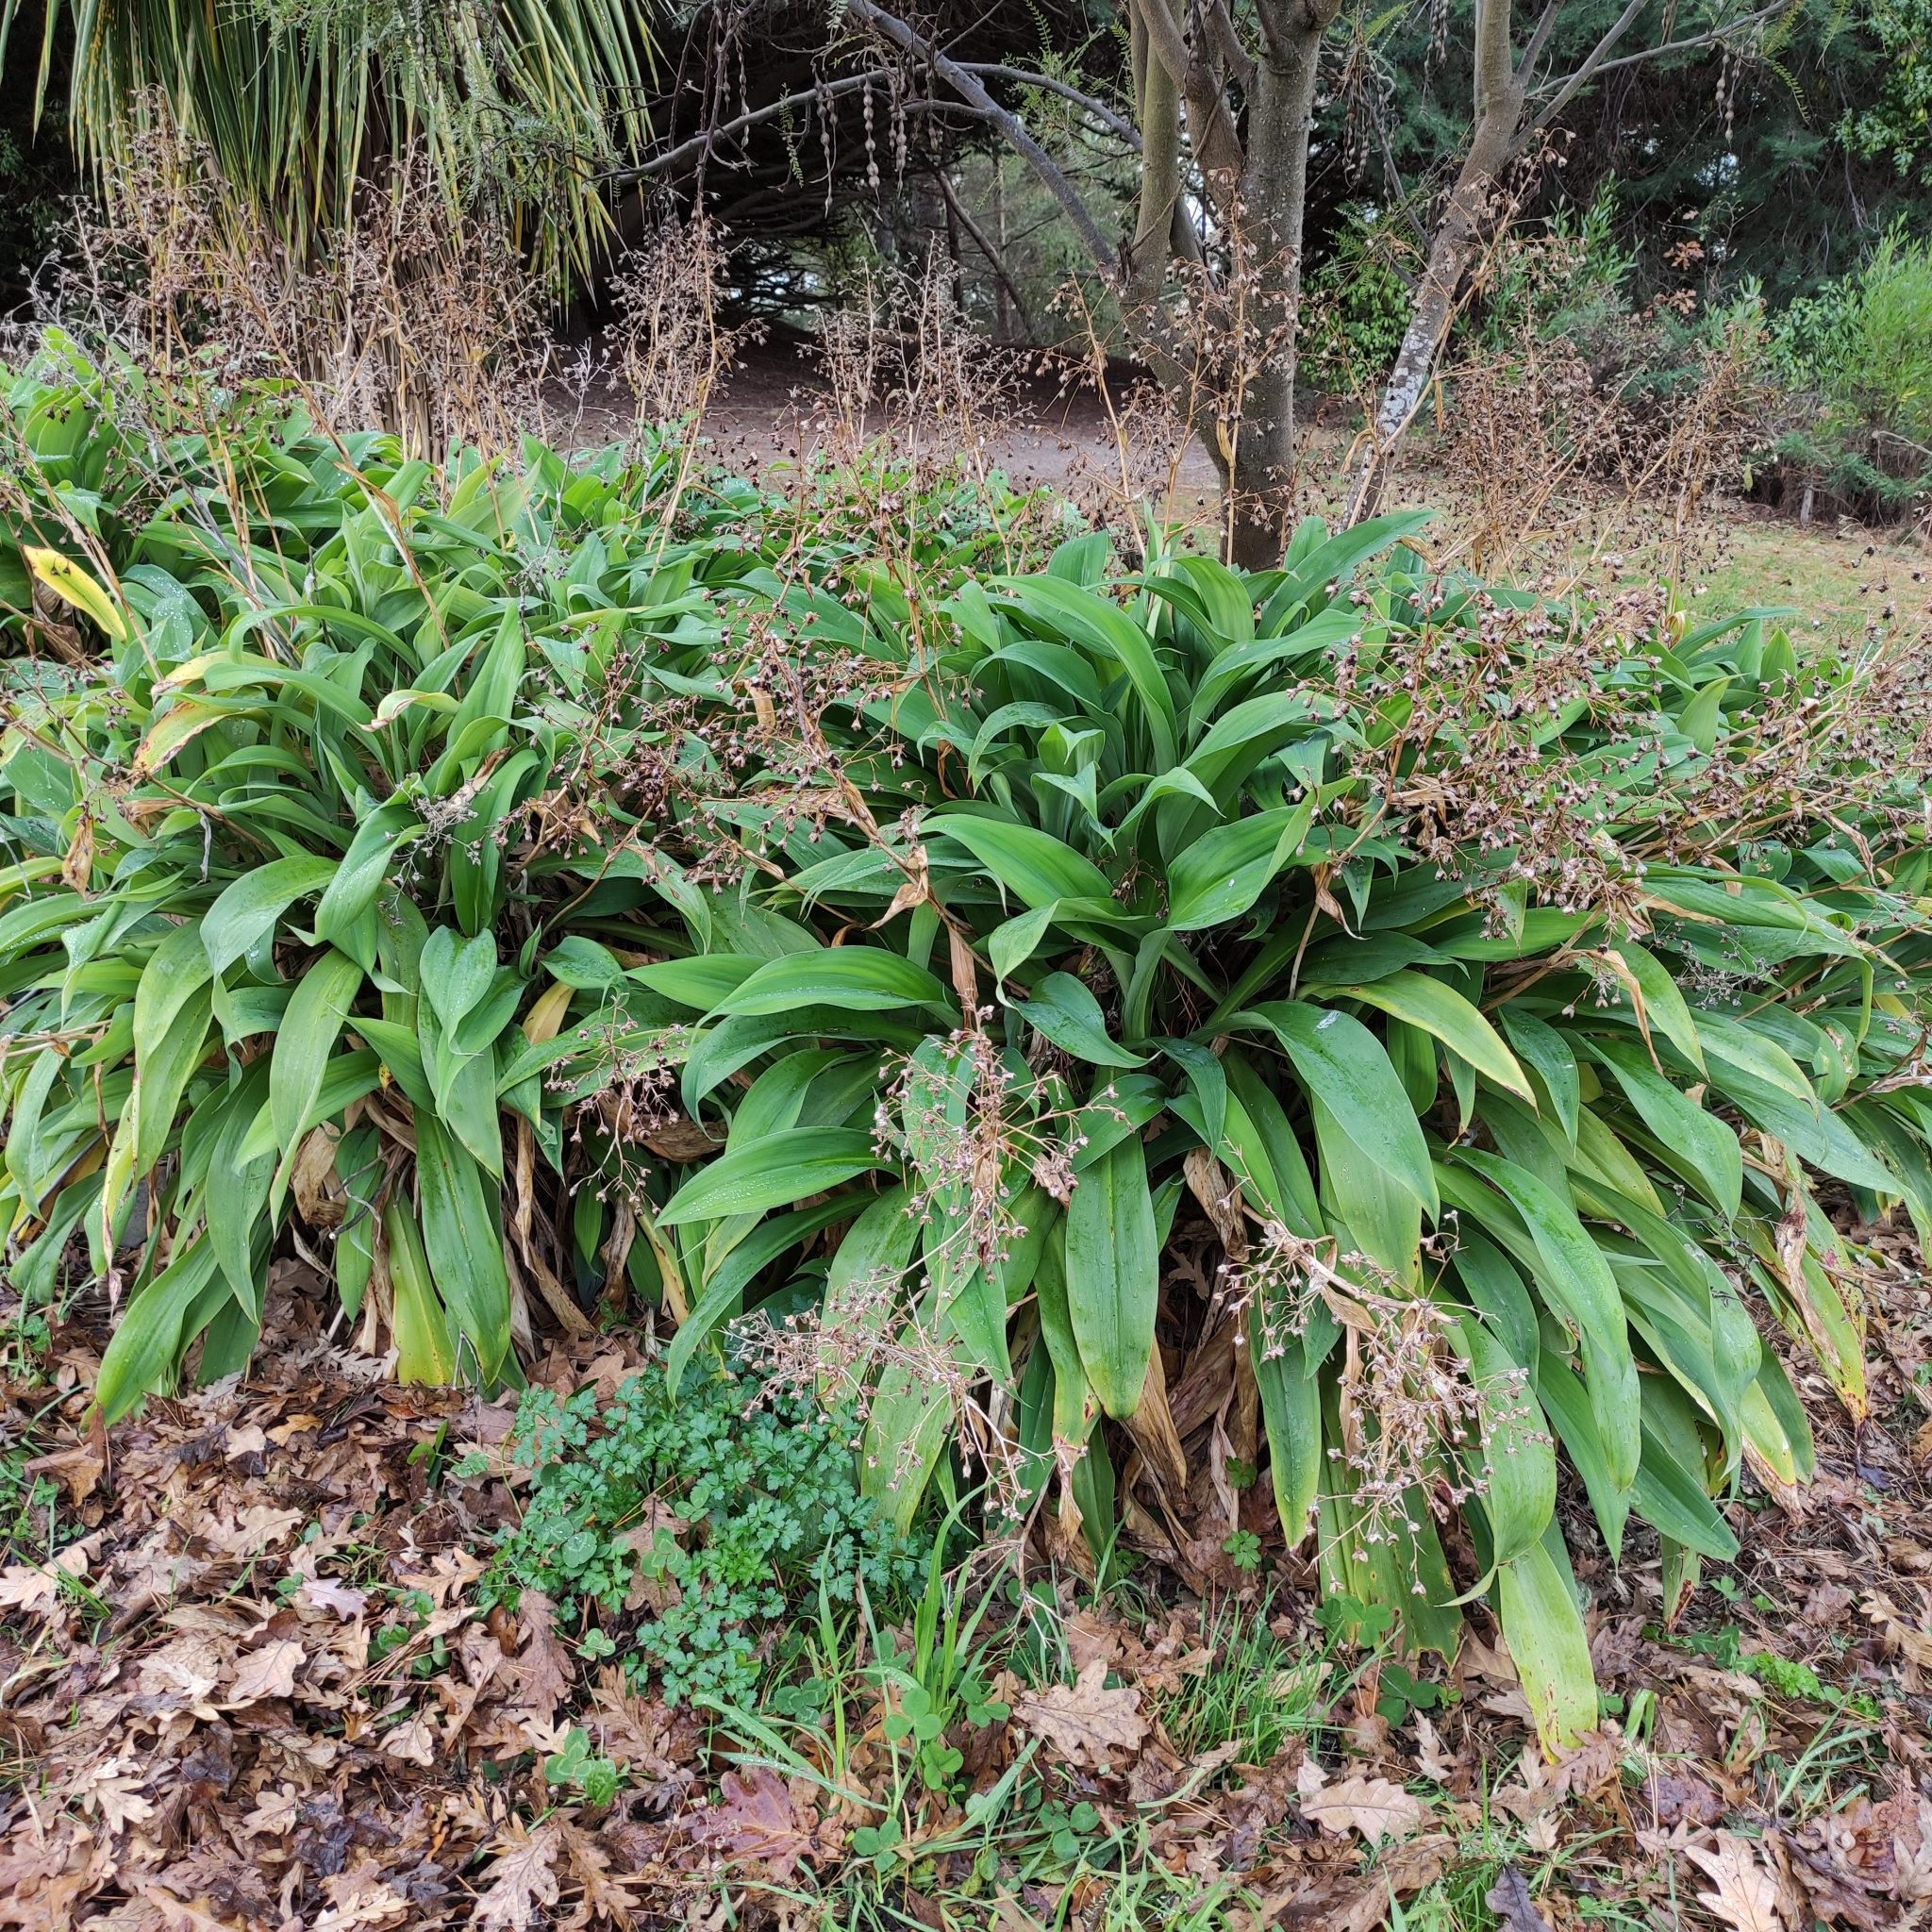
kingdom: Plantae
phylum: Tracheophyta
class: Liliopsida
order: Asparagales
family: Asparagaceae
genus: Arthropodium
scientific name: Arthropodium cirratum
